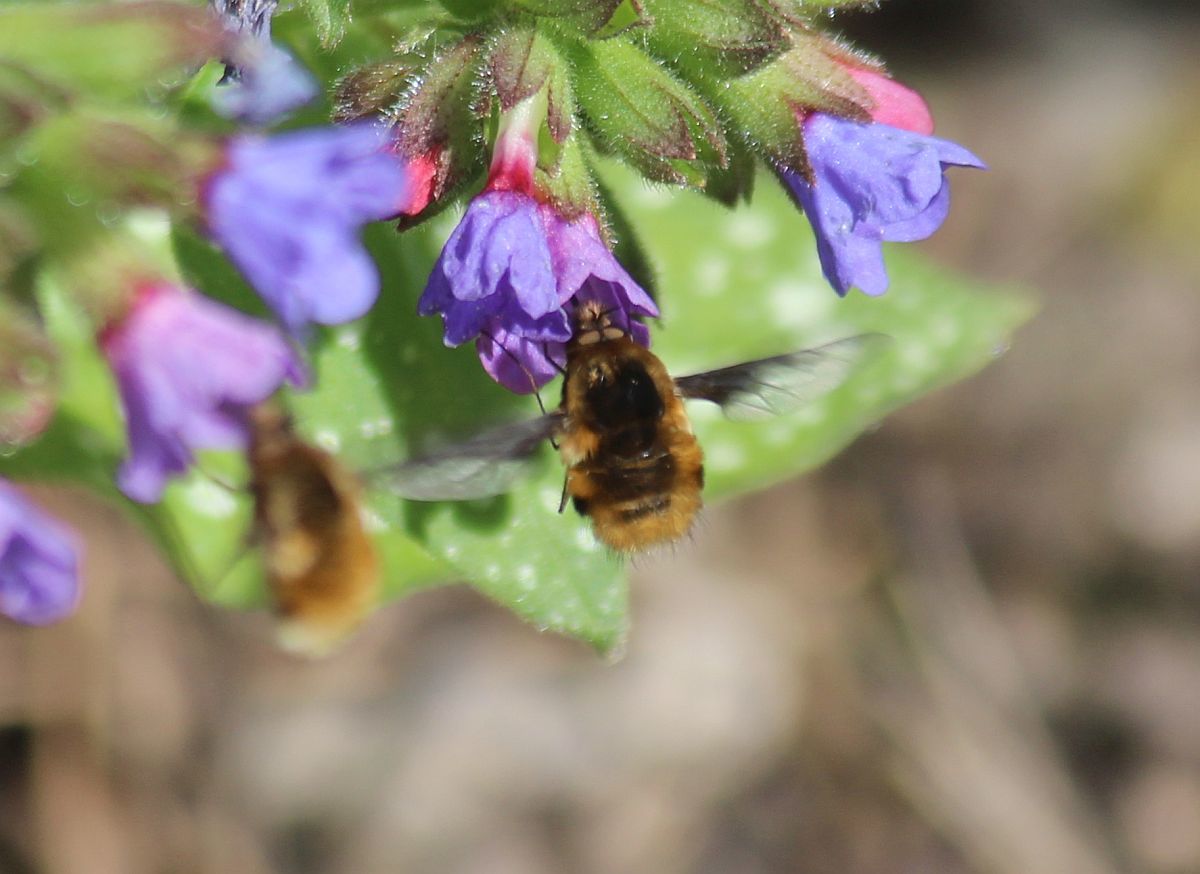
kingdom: Animalia
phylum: Arthropoda
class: Insecta
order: Diptera
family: Bombyliidae
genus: Bombylius
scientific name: Bombylius major
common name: Bee fly
